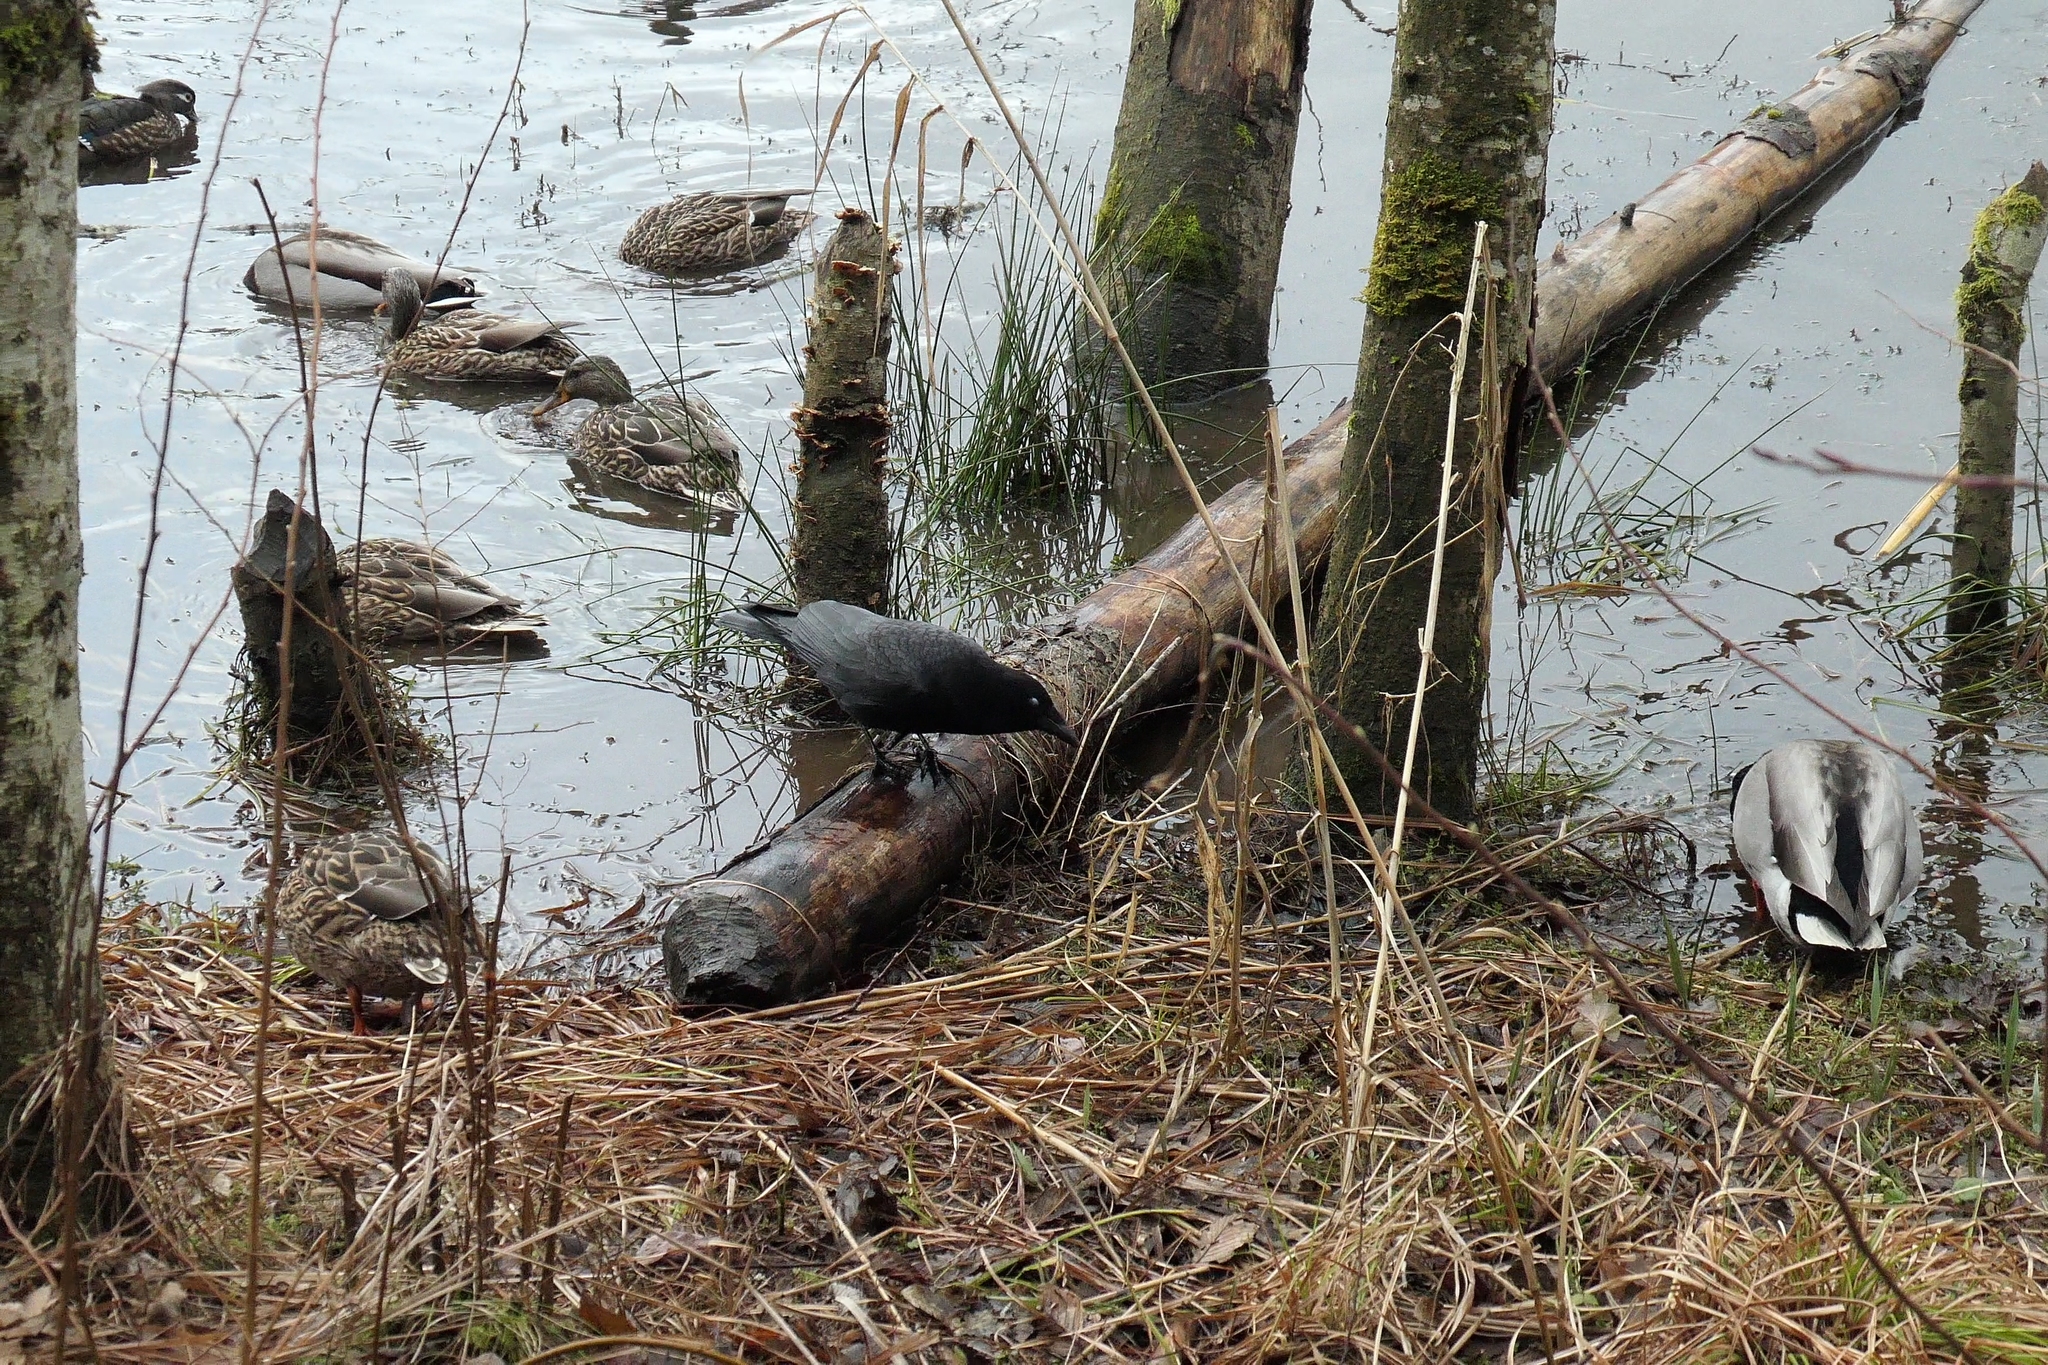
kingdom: Animalia
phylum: Chordata
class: Aves
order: Passeriformes
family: Corvidae
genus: Corvus
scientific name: Corvus brachyrhynchos
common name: American crow
